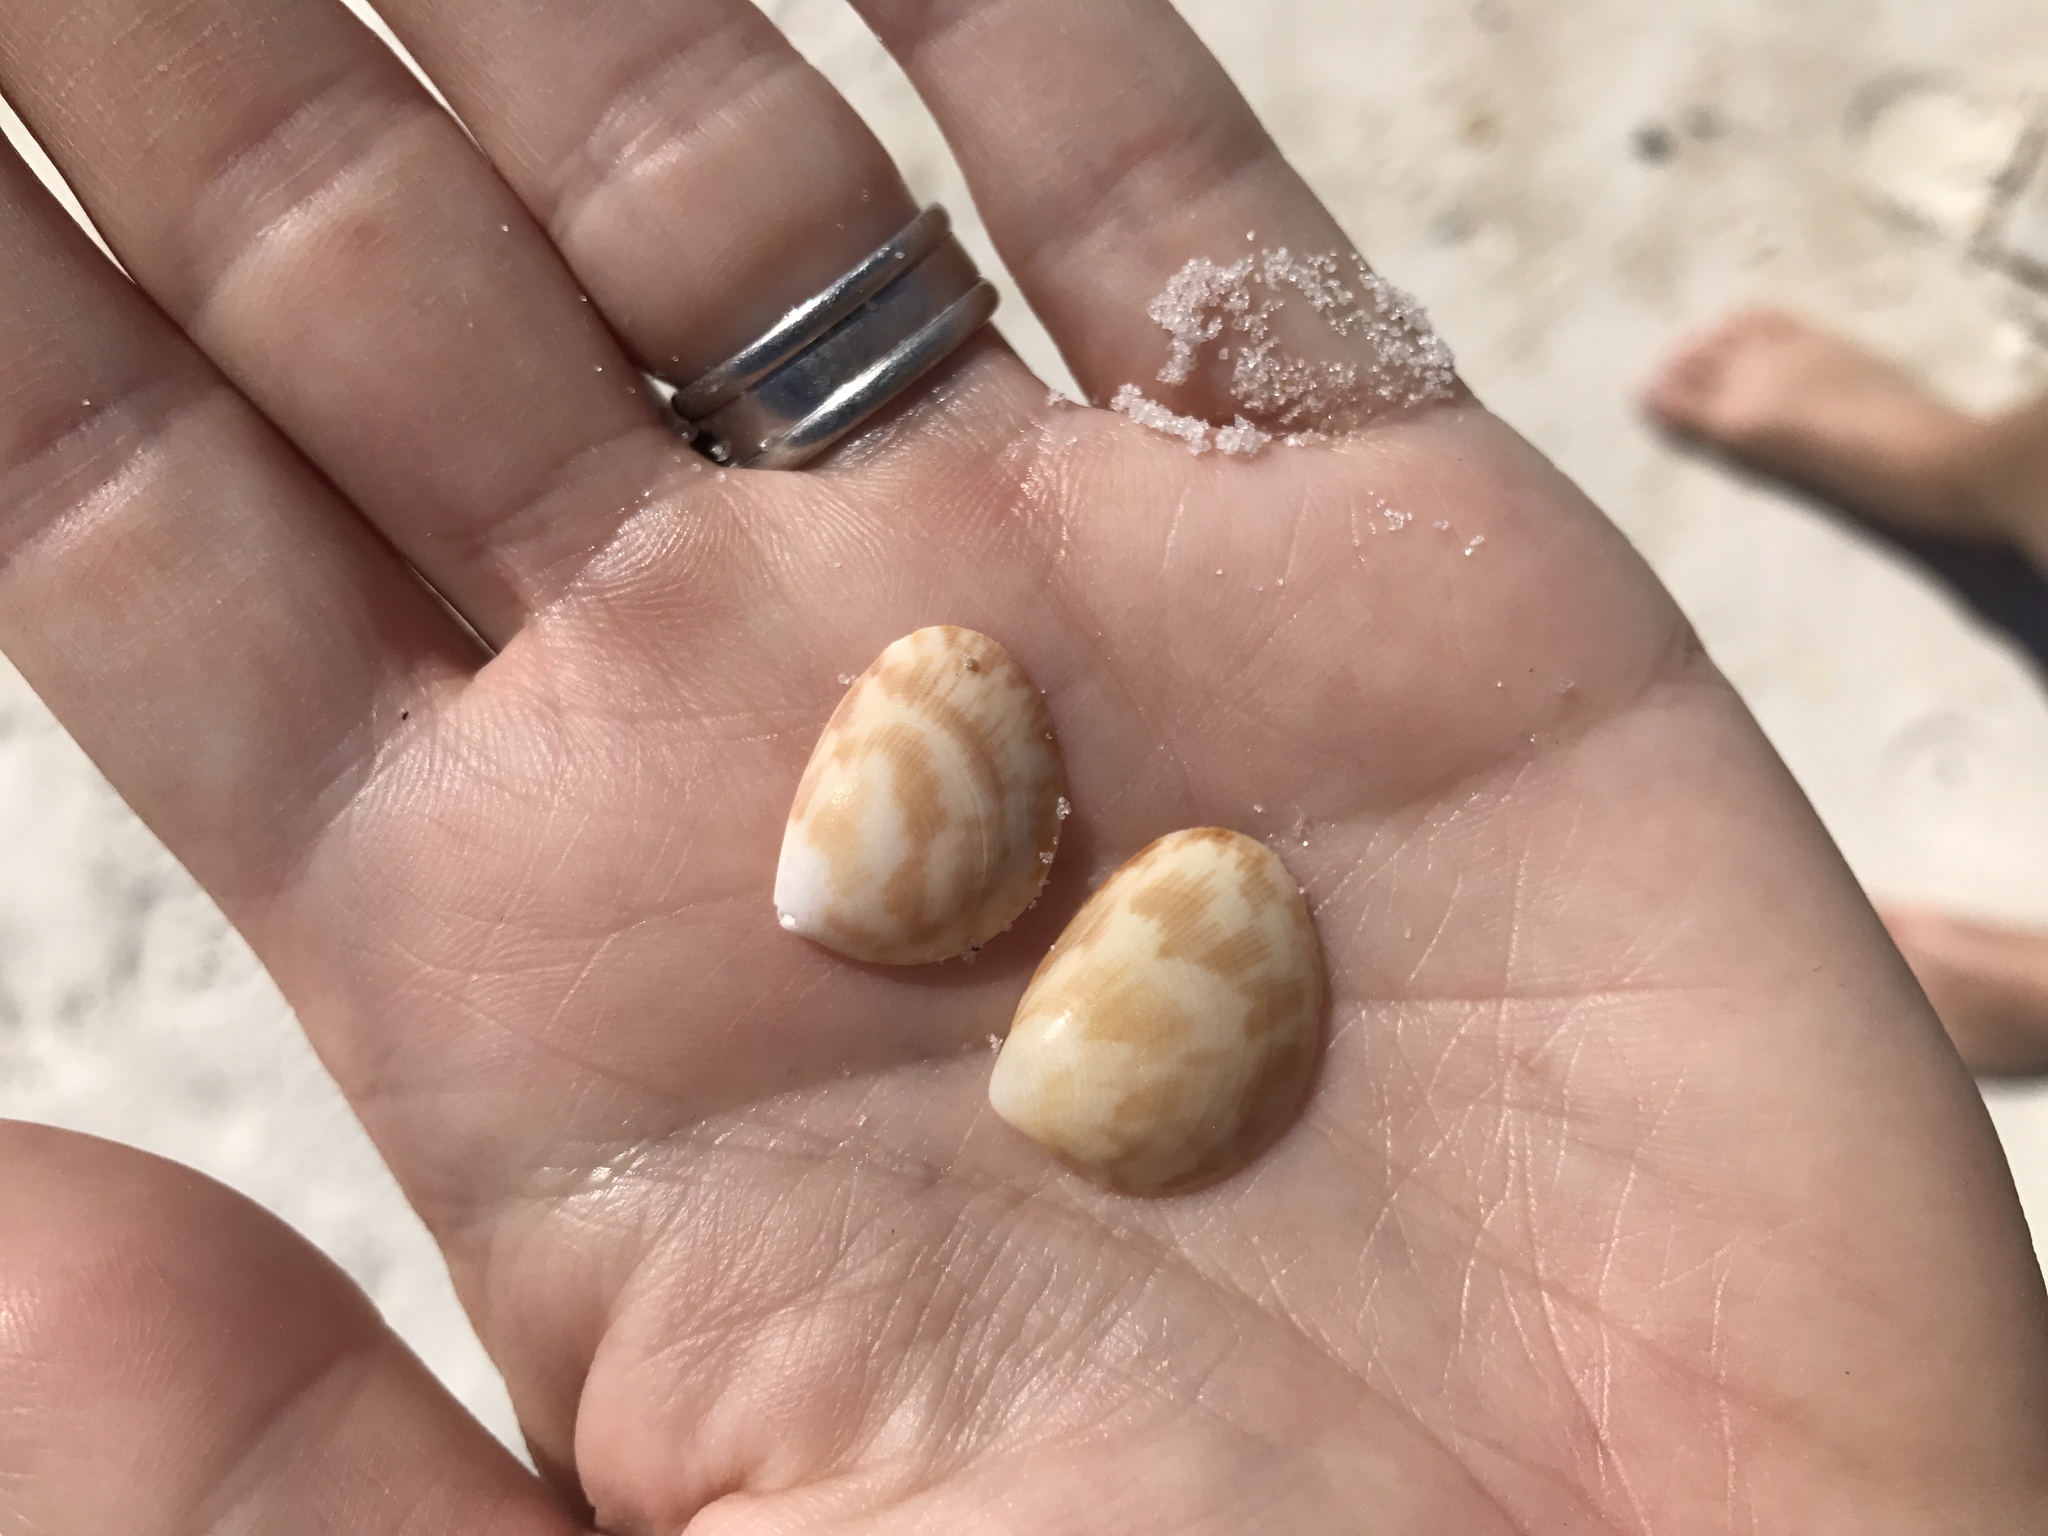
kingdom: Animalia
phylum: Mollusca
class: Bivalvia
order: Cardiida
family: Cardiidae
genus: Laevicardium
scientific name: Laevicardium pictum
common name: Painted eggcockle
